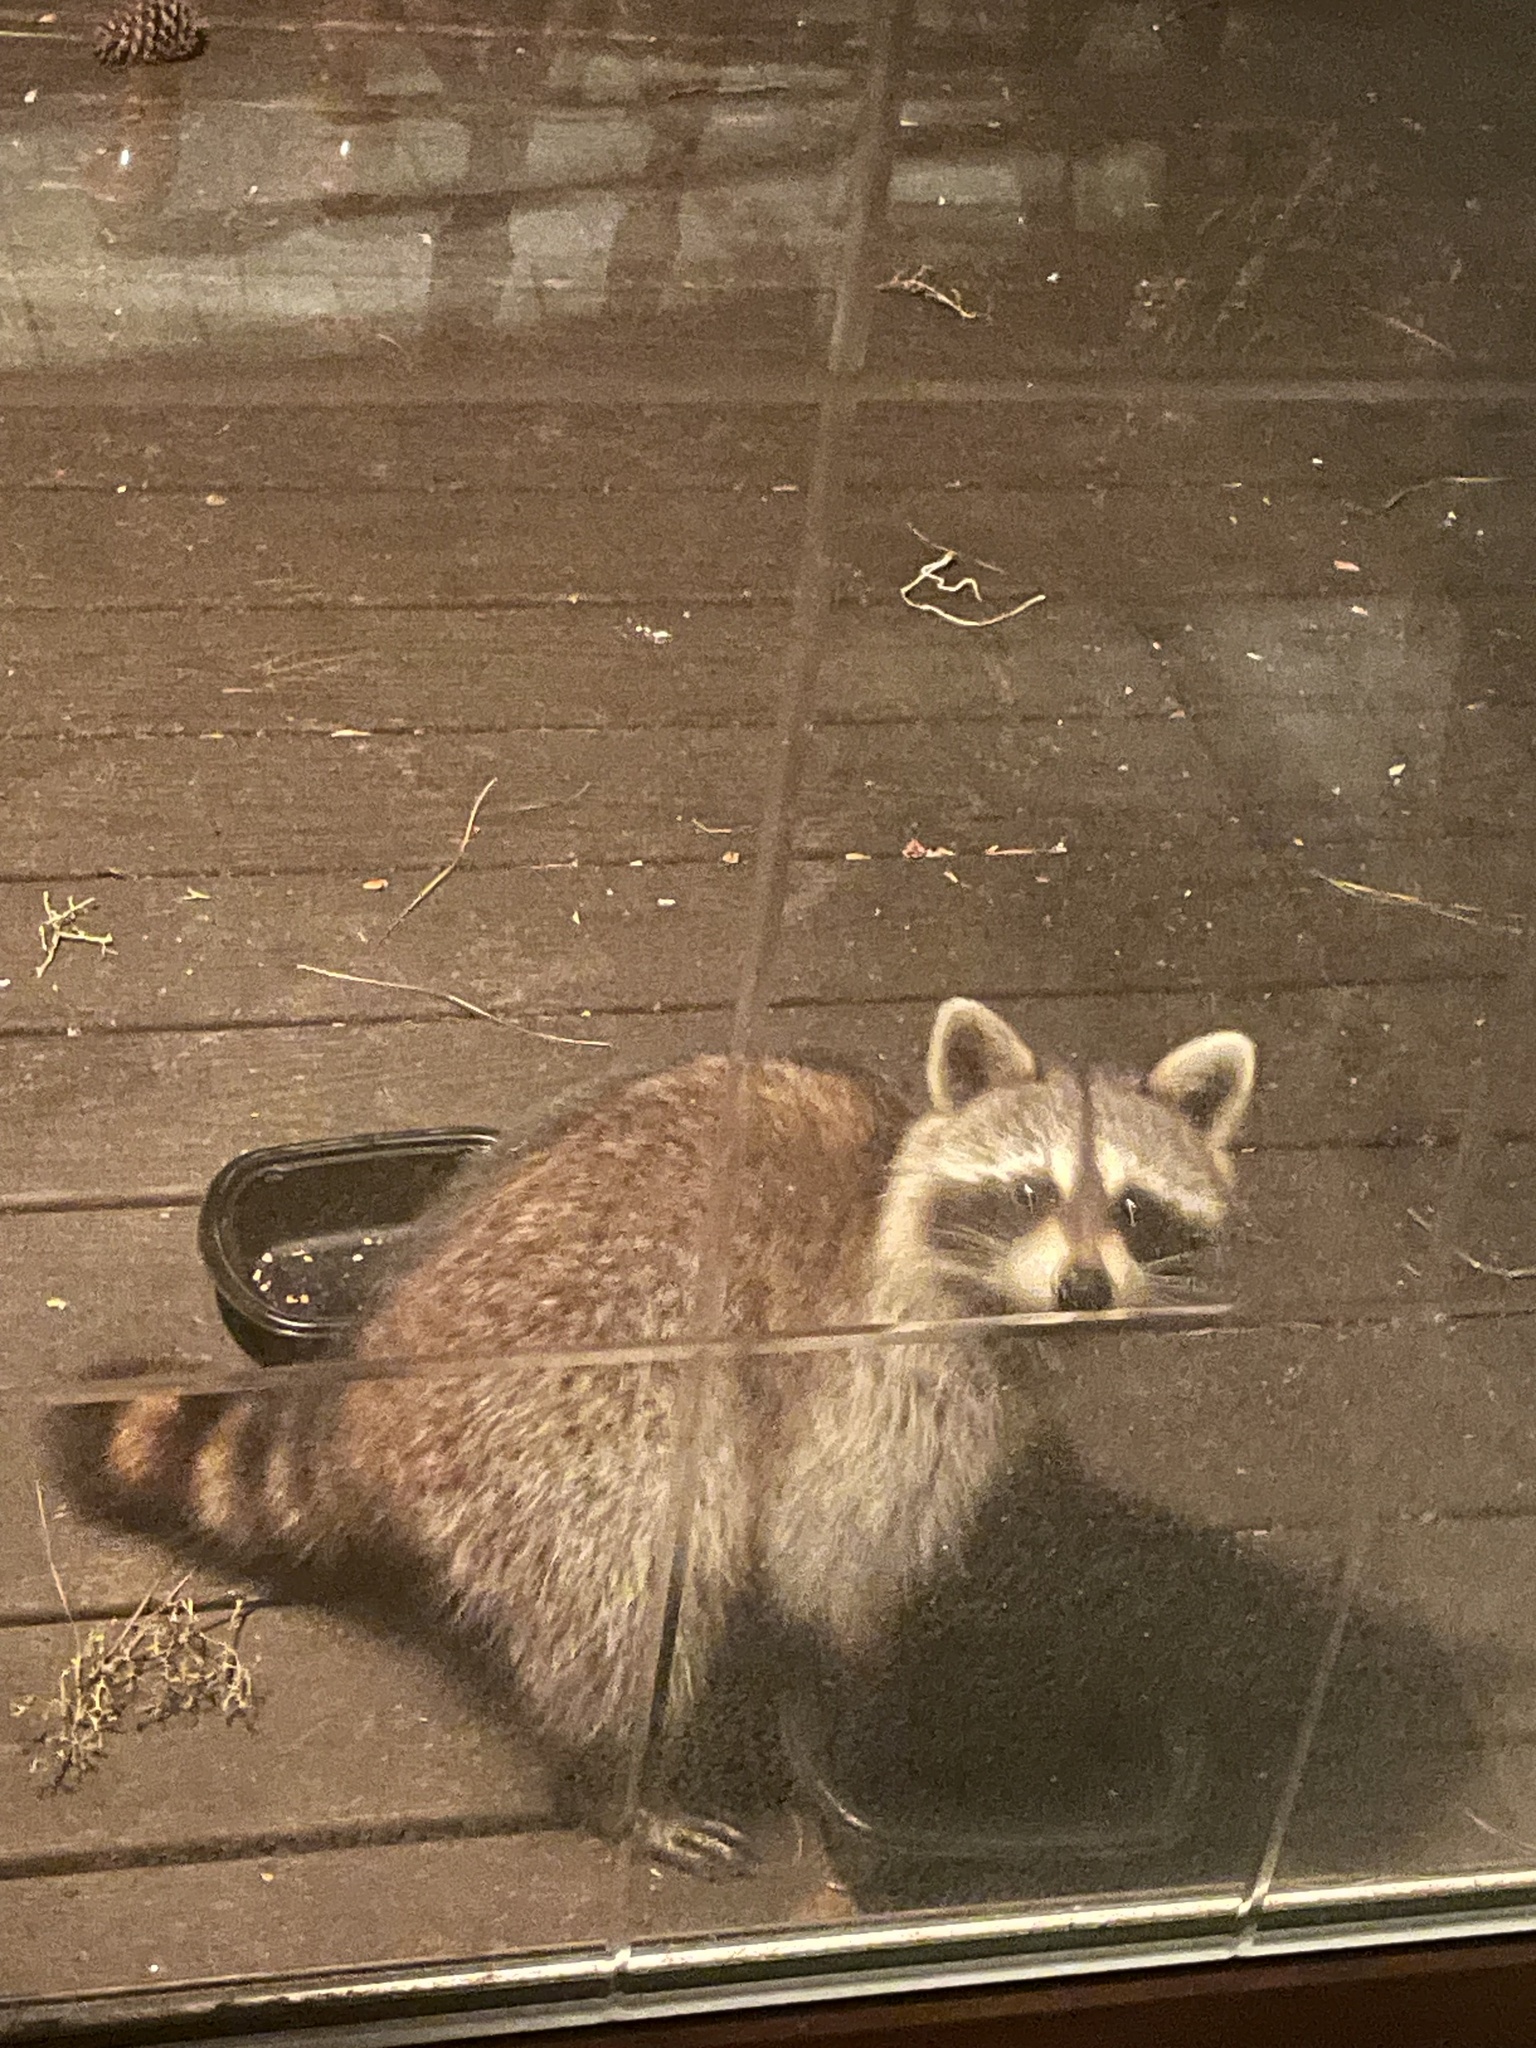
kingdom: Animalia
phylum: Chordata
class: Mammalia
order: Carnivora
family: Procyonidae
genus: Procyon
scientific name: Procyon lotor
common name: Raccoon
